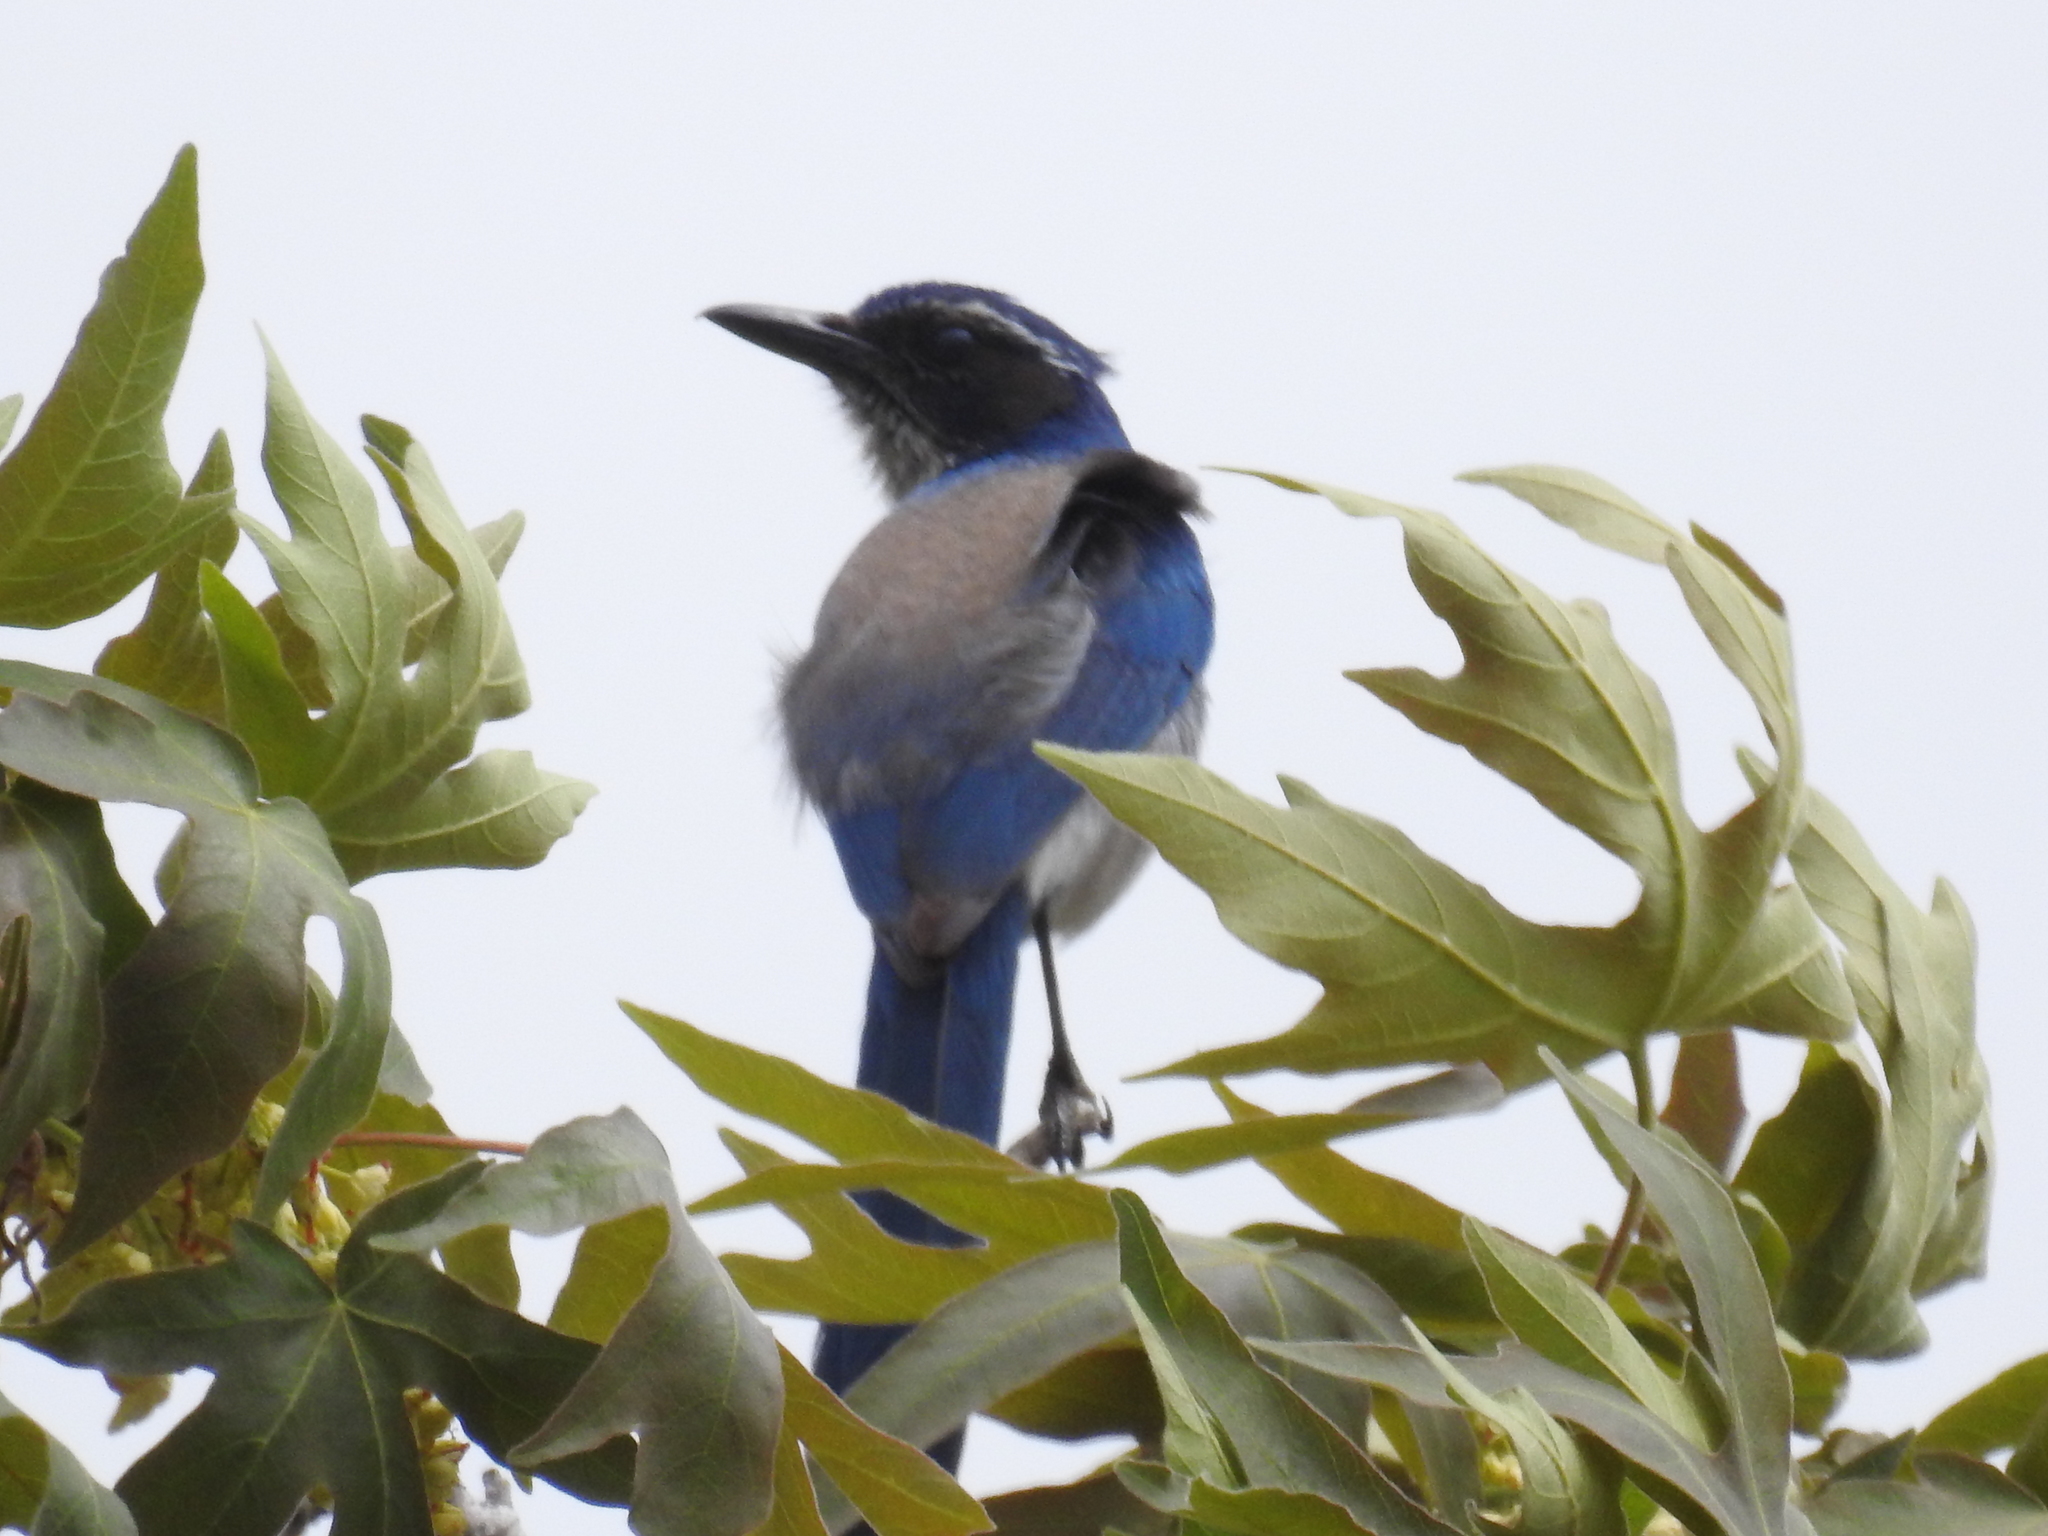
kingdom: Animalia
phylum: Chordata
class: Aves
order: Passeriformes
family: Corvidae
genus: Aphelocoma
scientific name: Aphelocoma californica
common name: California scrub-jay
